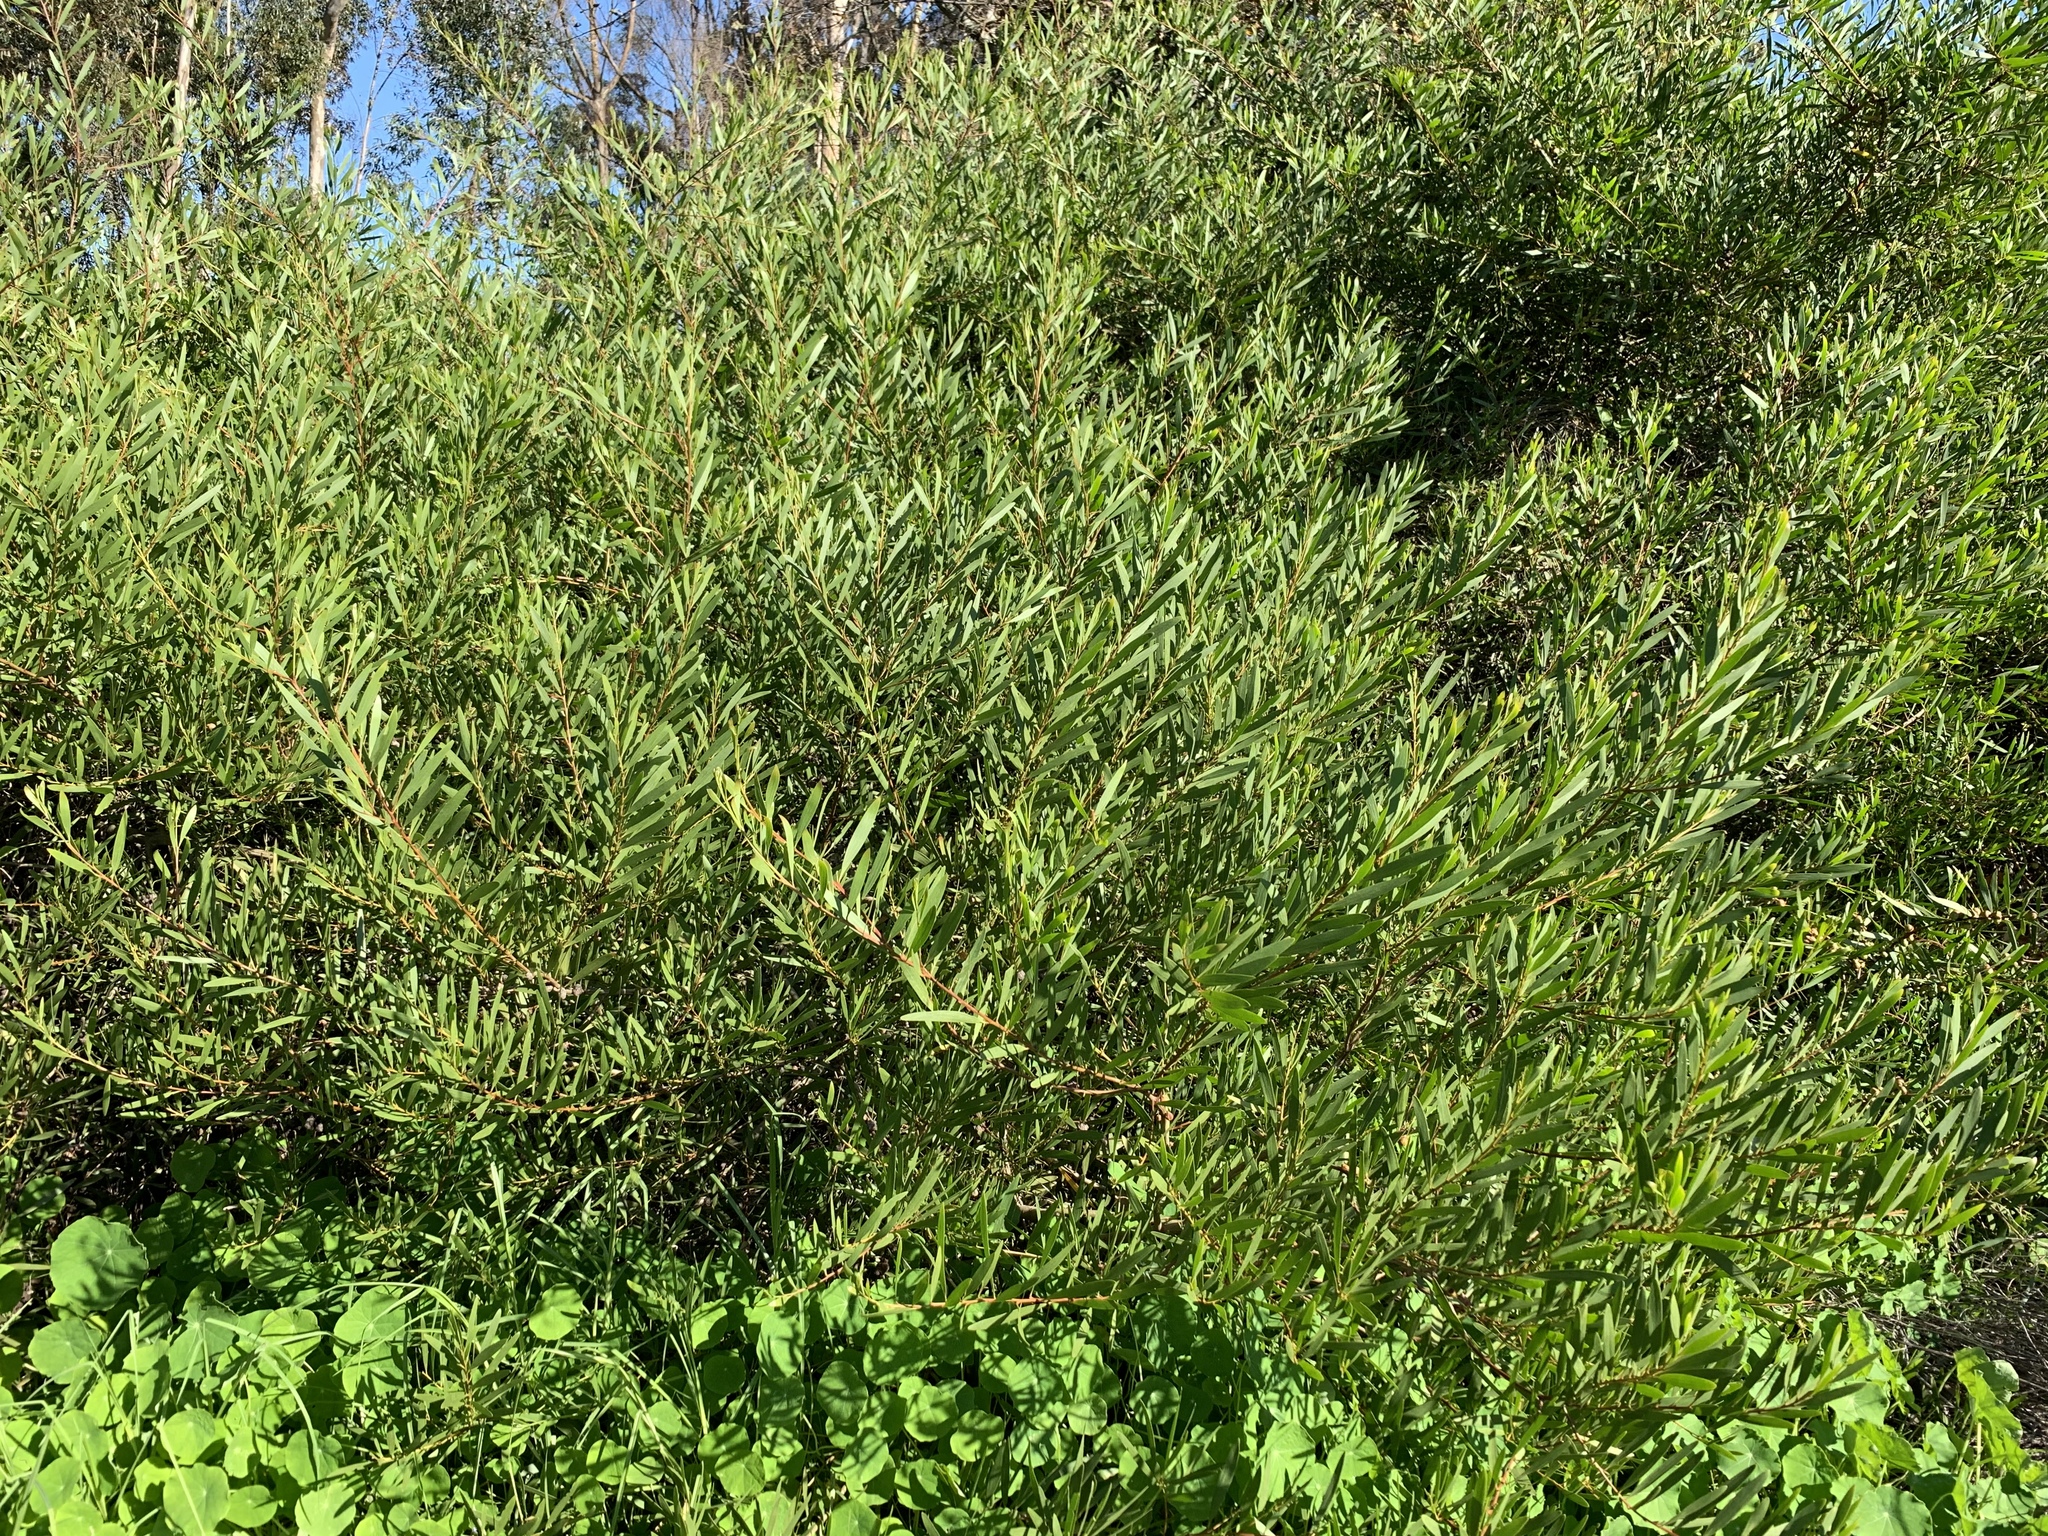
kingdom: Plantae
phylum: Tracheophyta
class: Magnoliopsida
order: Fabales
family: Fabaceae
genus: Acacia
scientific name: Acacia longifolia
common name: Sydney golden wattle
